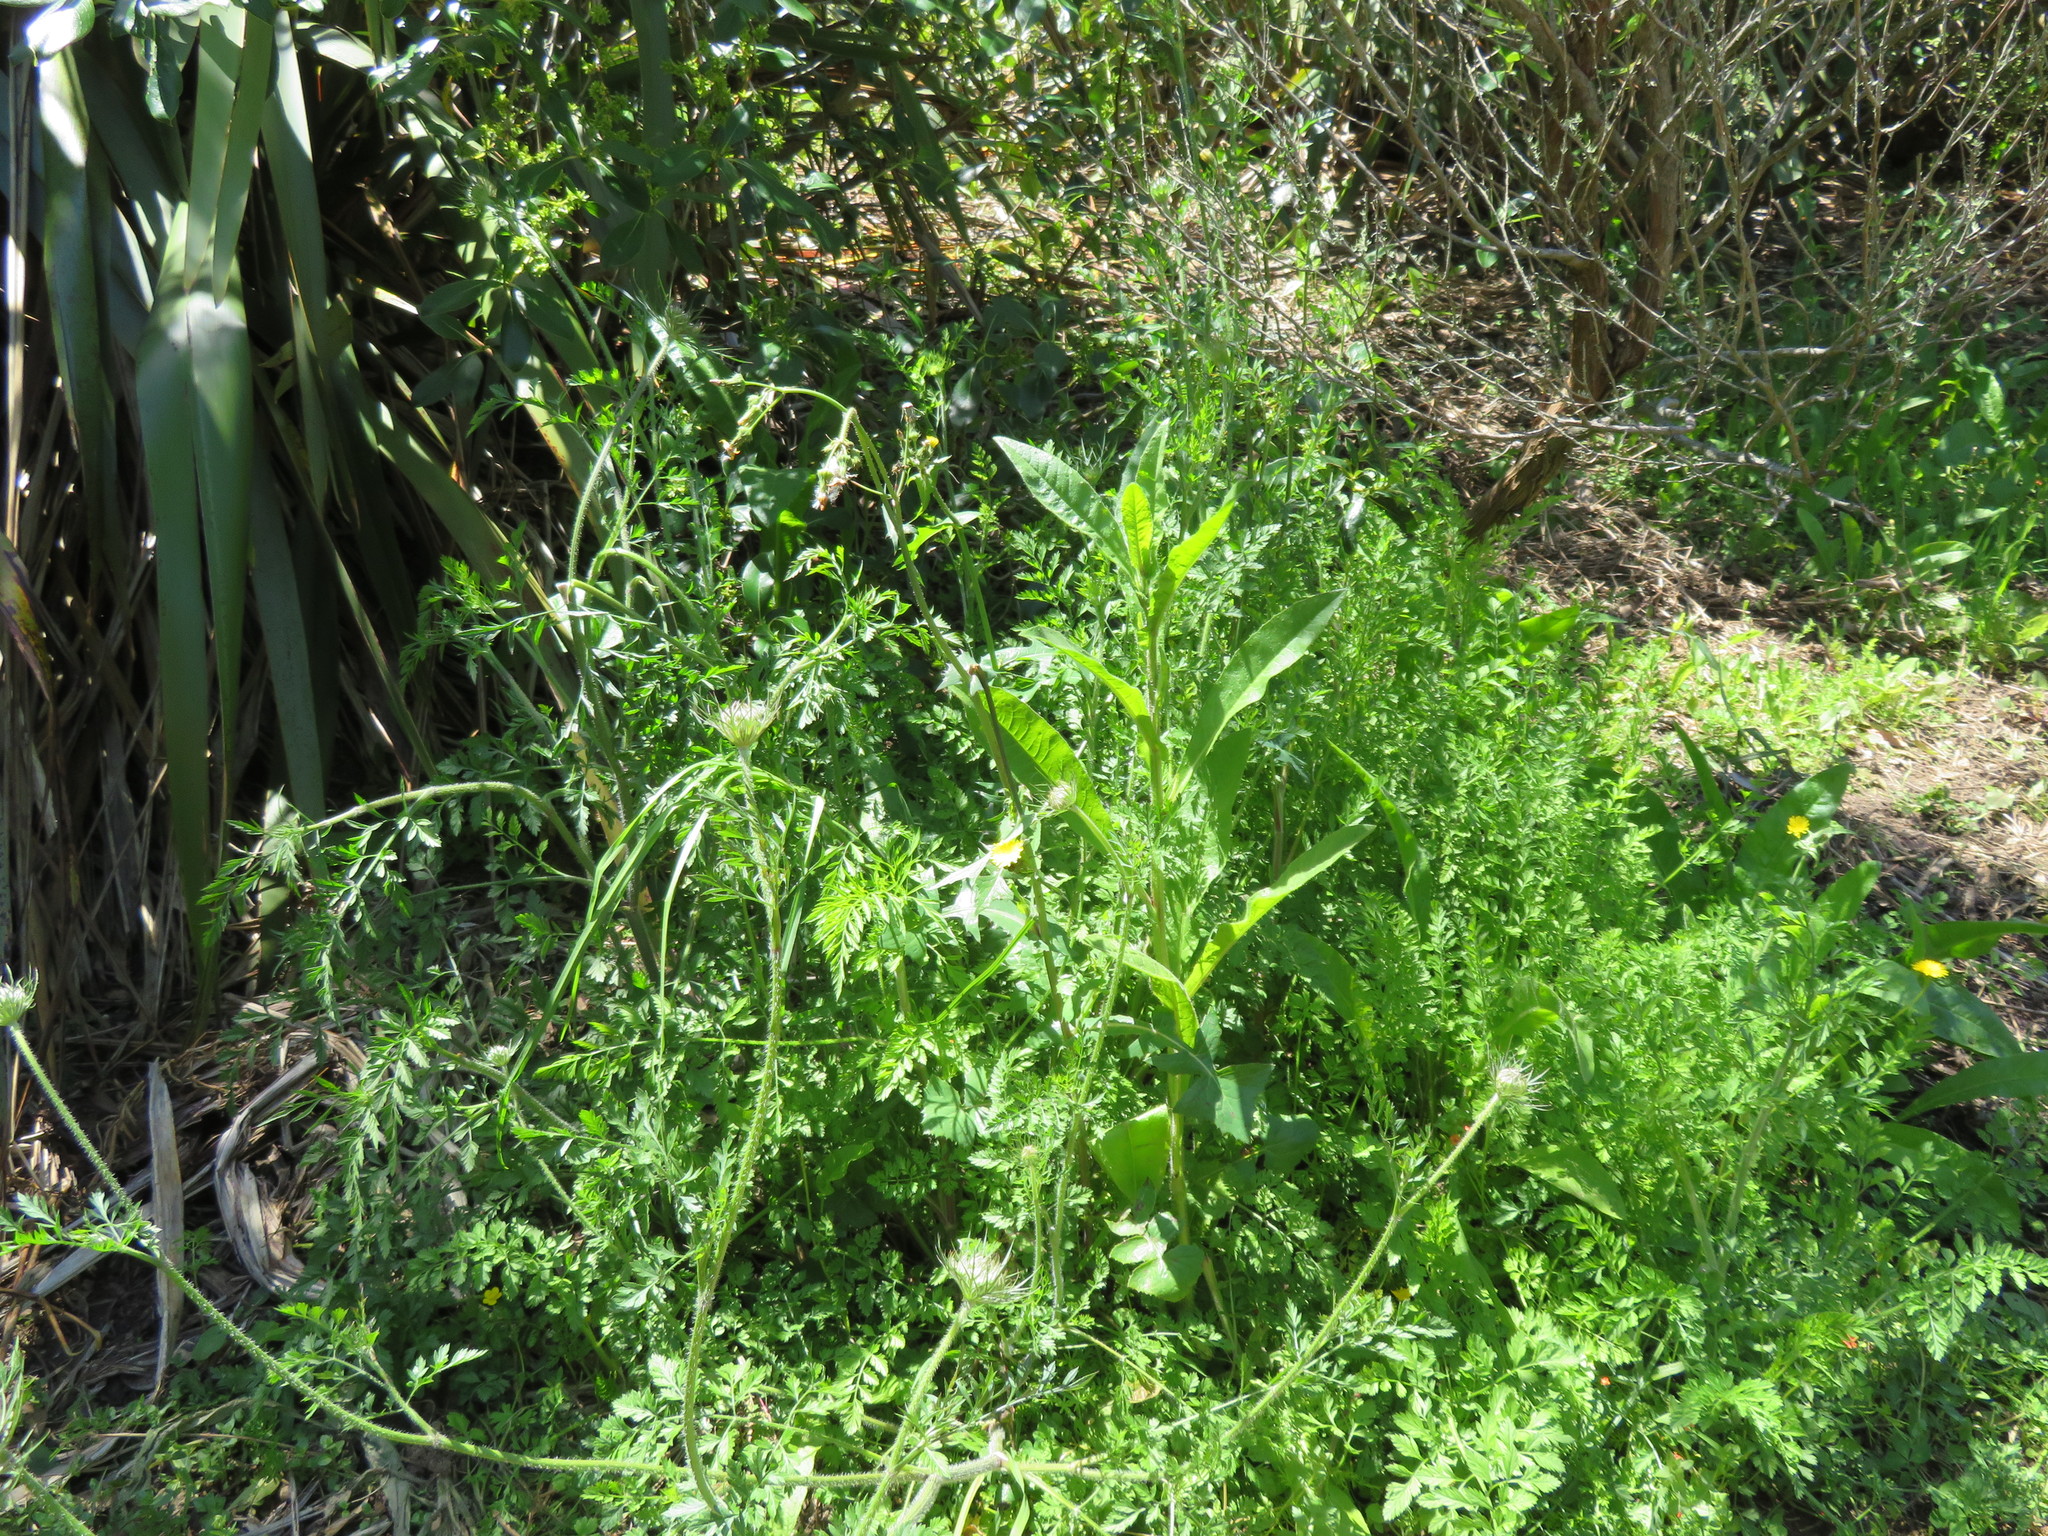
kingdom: Plantae
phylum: Tracheophyta
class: Magnoliopsida
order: Apiales
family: Apiaceae
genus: Daucus
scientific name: Daucus carota
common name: Wild carrot
